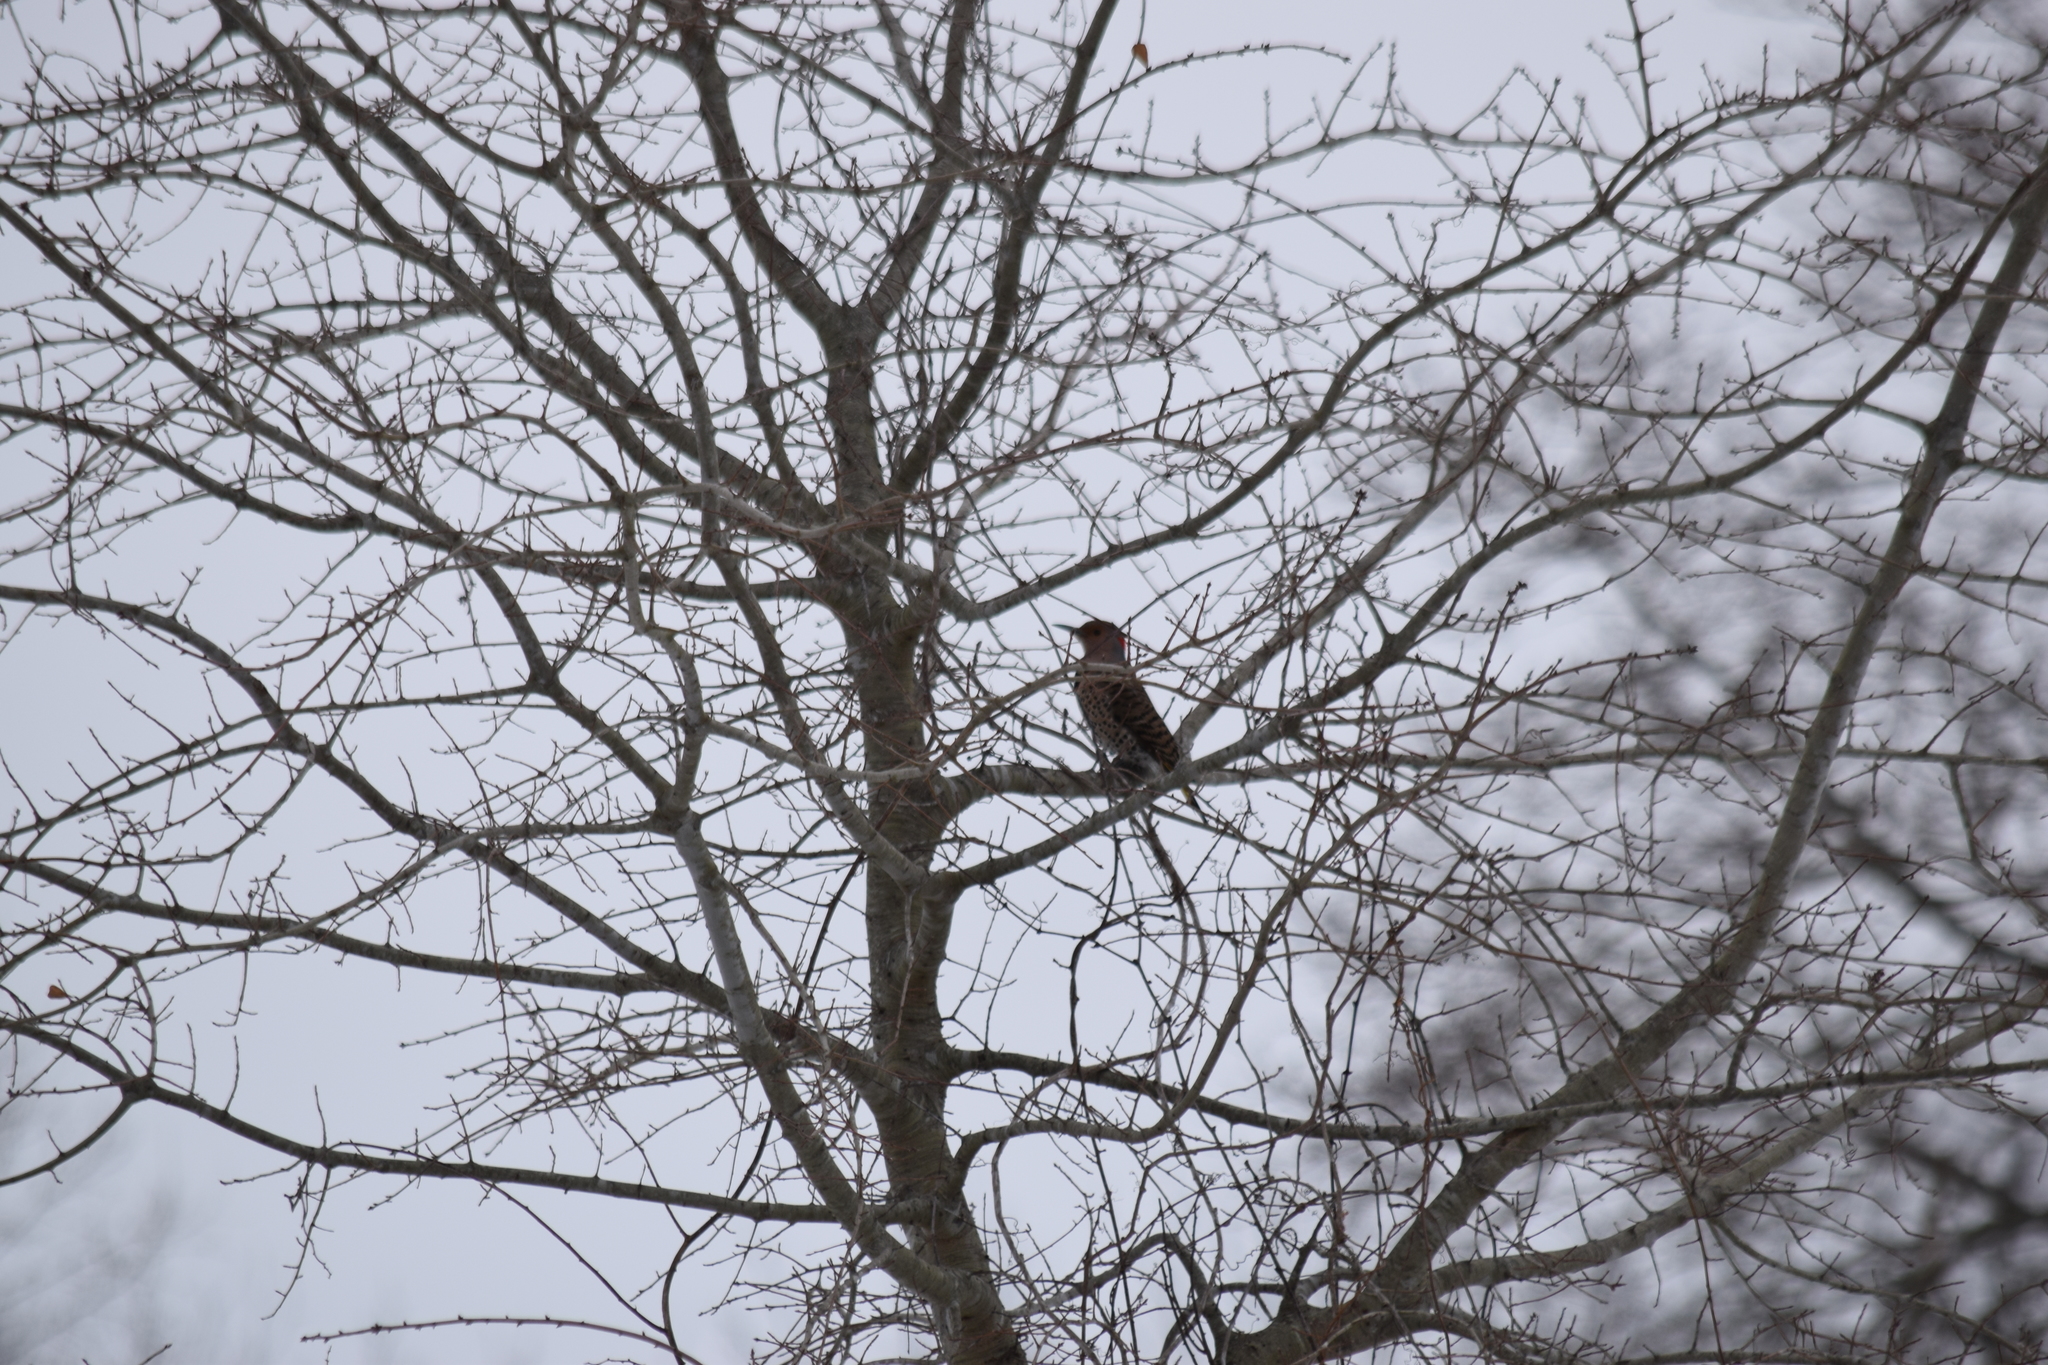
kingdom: Animalia
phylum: Chordata
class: Aves
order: Piciformes
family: Picidae
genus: Colaptes
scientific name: Colaptes auratus
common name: Northern flicker
